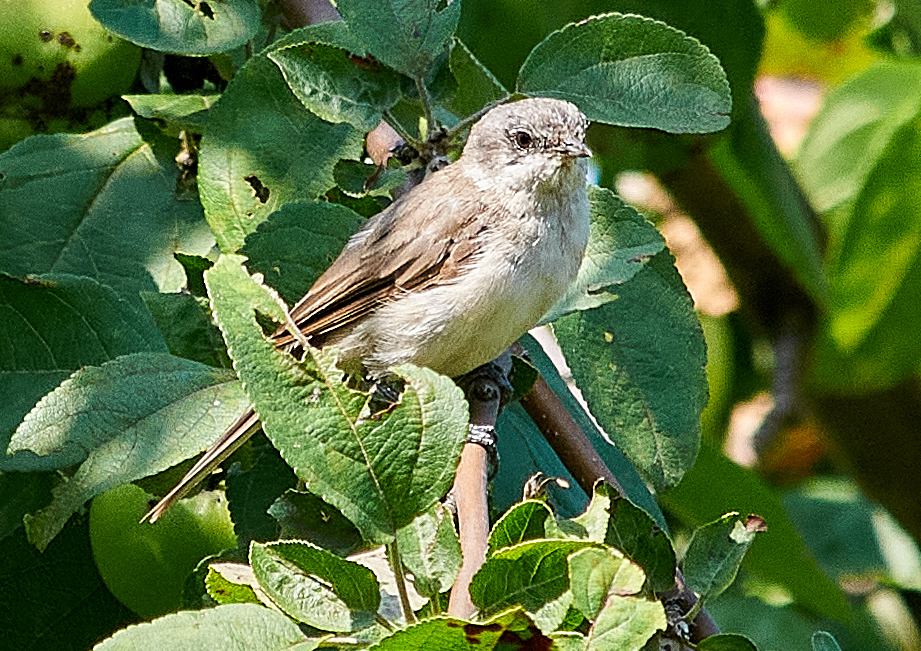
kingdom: Animalia
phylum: Chordata
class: Aves
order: Passeriformes
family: Sylviidae
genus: Sylvia
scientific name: Sylvia curruca
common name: Lesser whitethroat
